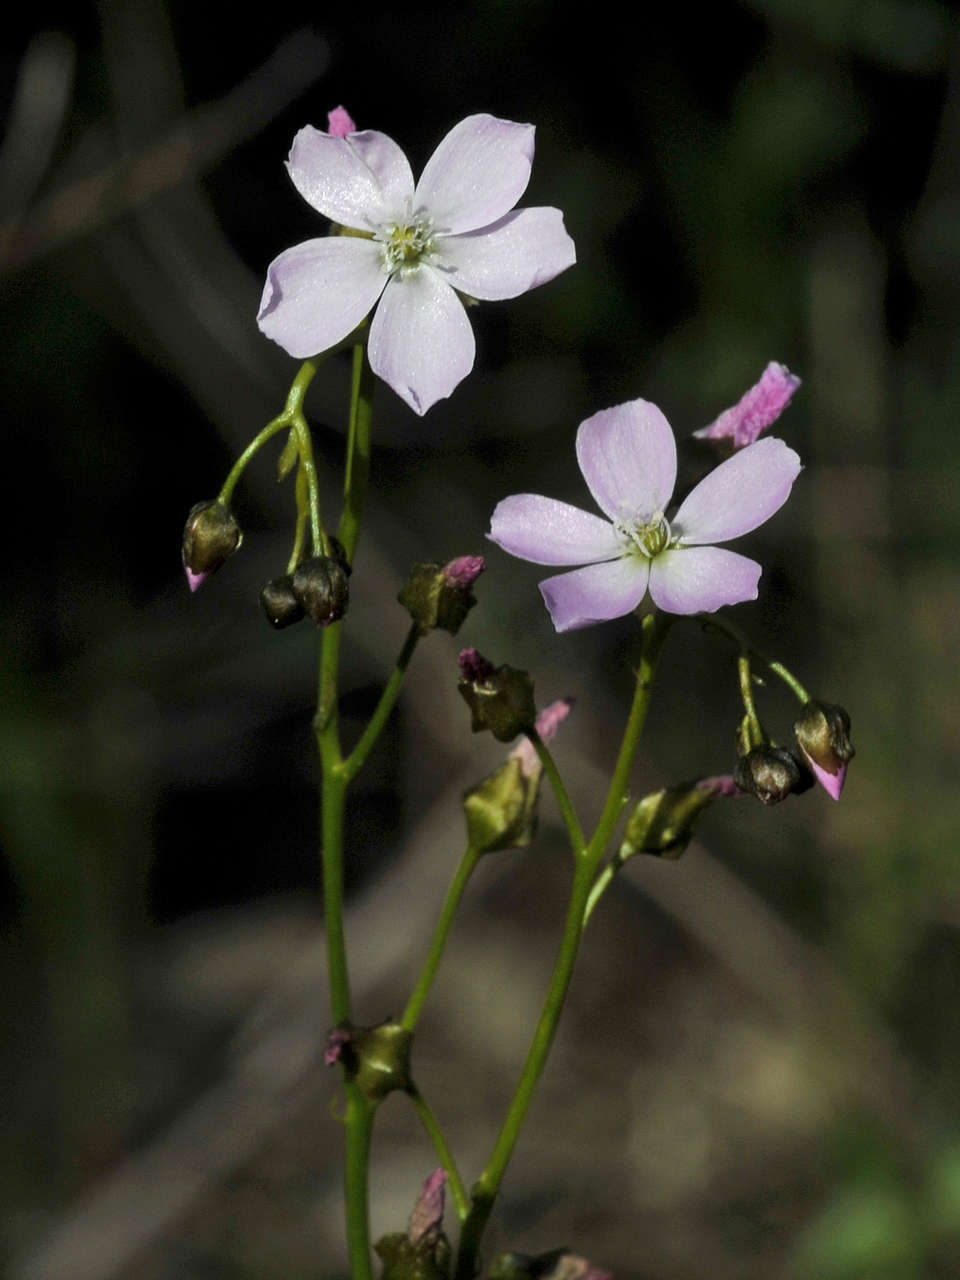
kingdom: Plantae
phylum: Tracheophyta
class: Magnoliopsida
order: Caryophyllales
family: Droseraceae
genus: Drosera
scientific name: Drosera peltata
